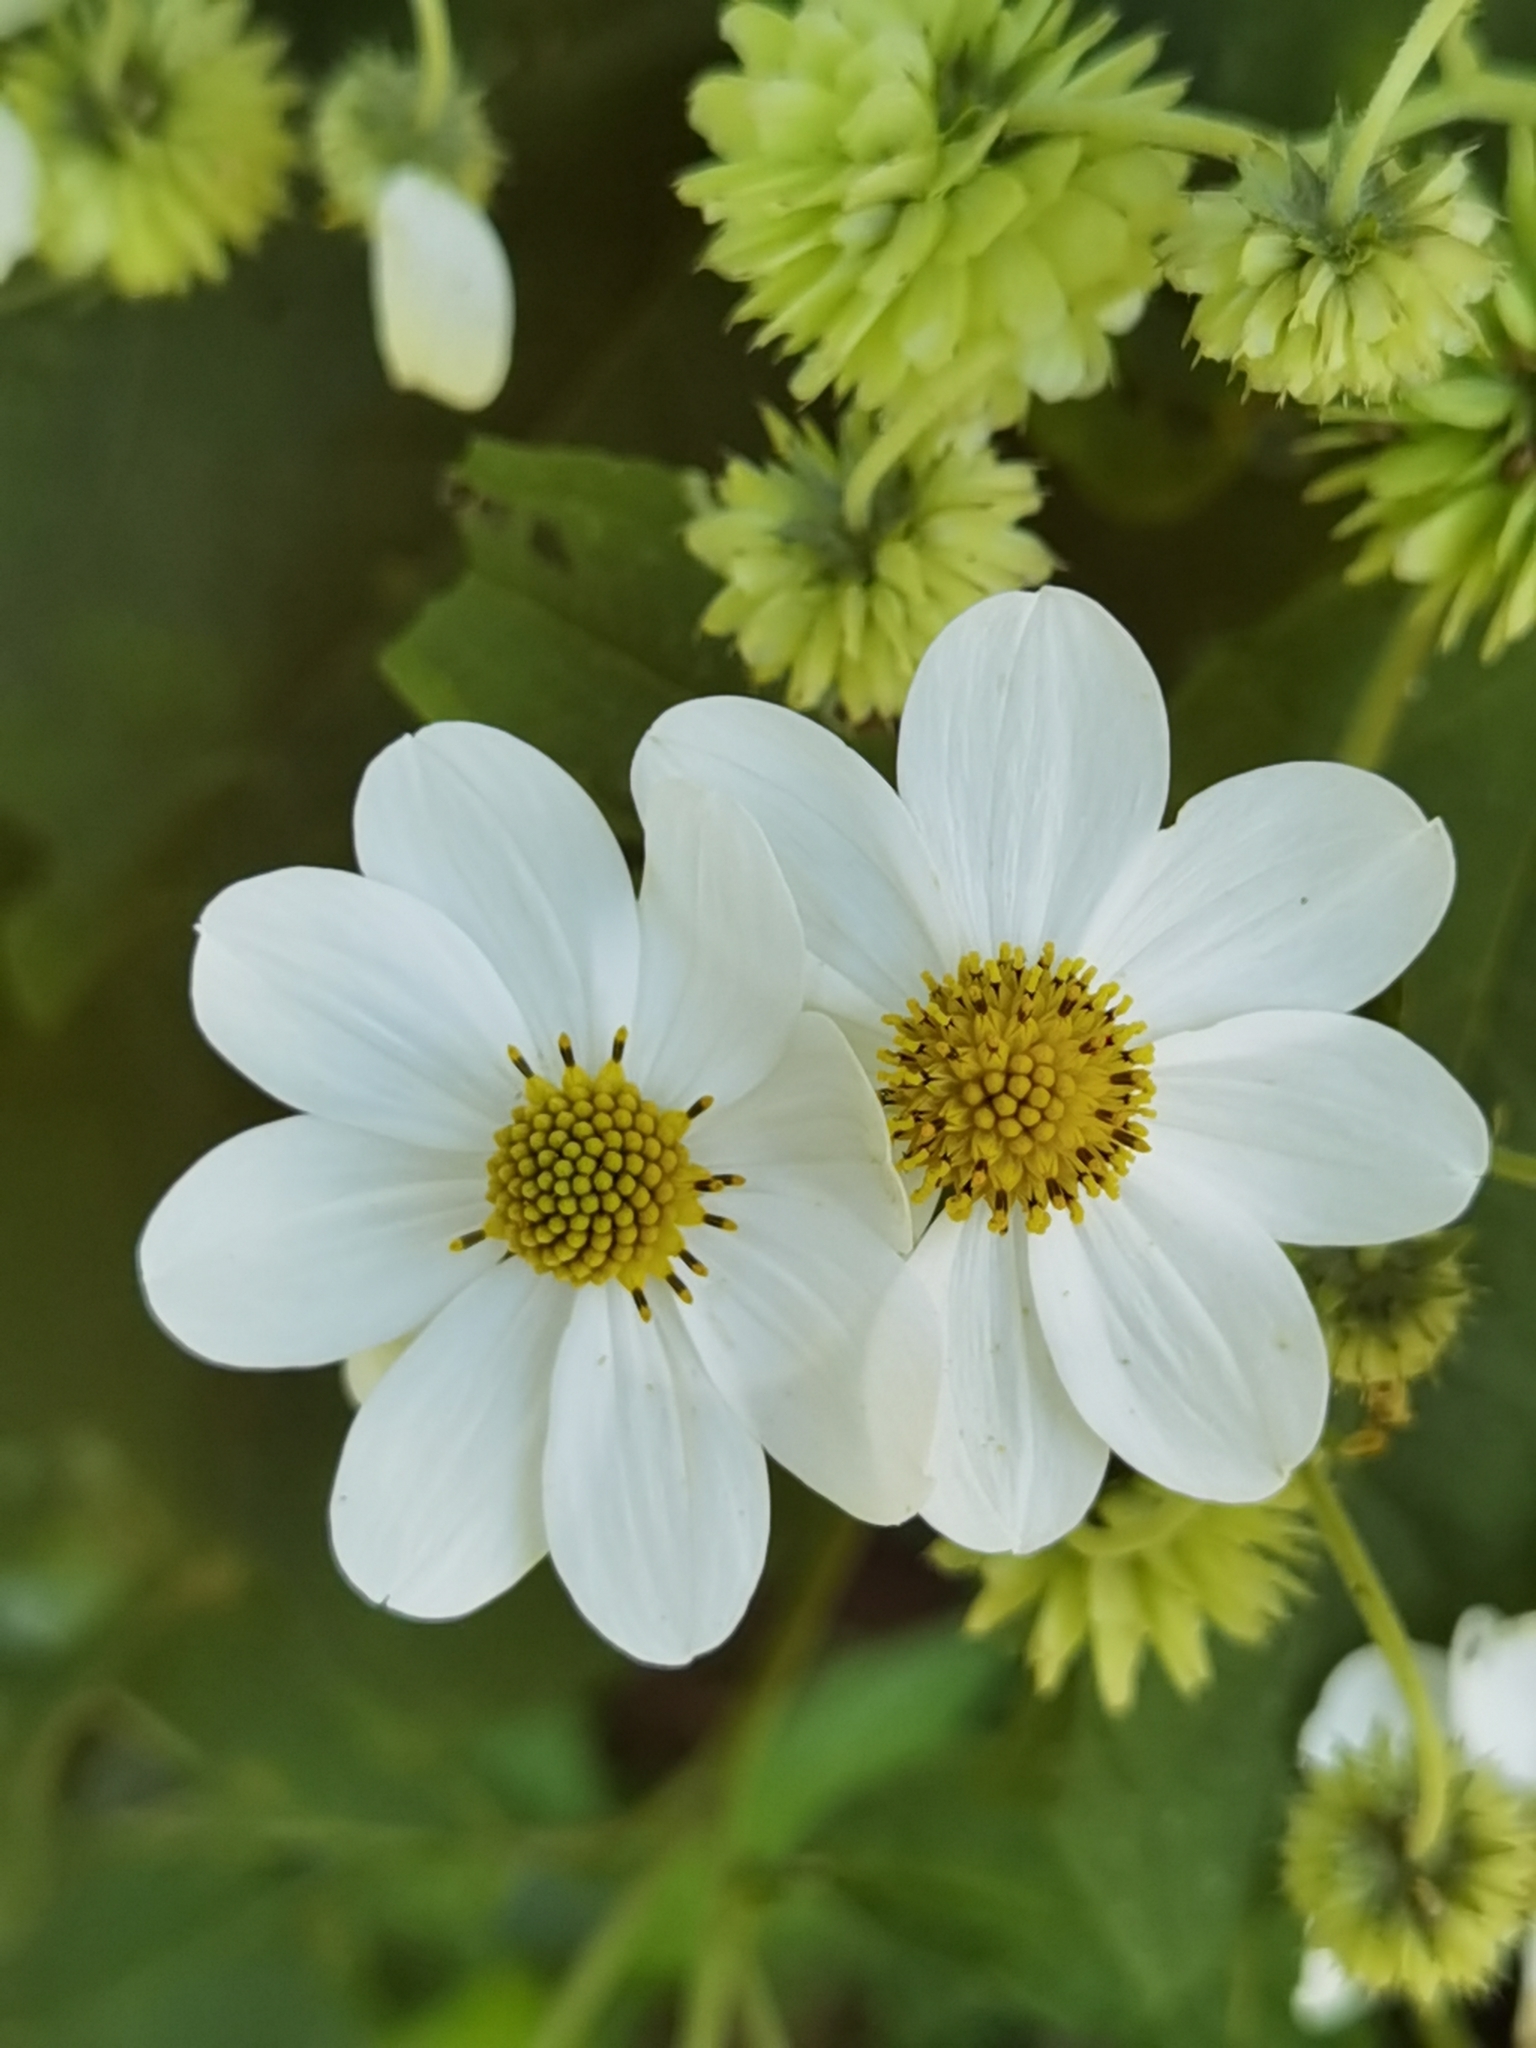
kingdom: Plantae
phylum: Tracheophyta
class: Magnoliopsida
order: Asterales
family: Asteraceae
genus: Montanoa
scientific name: Montanoa hibiscifolia
